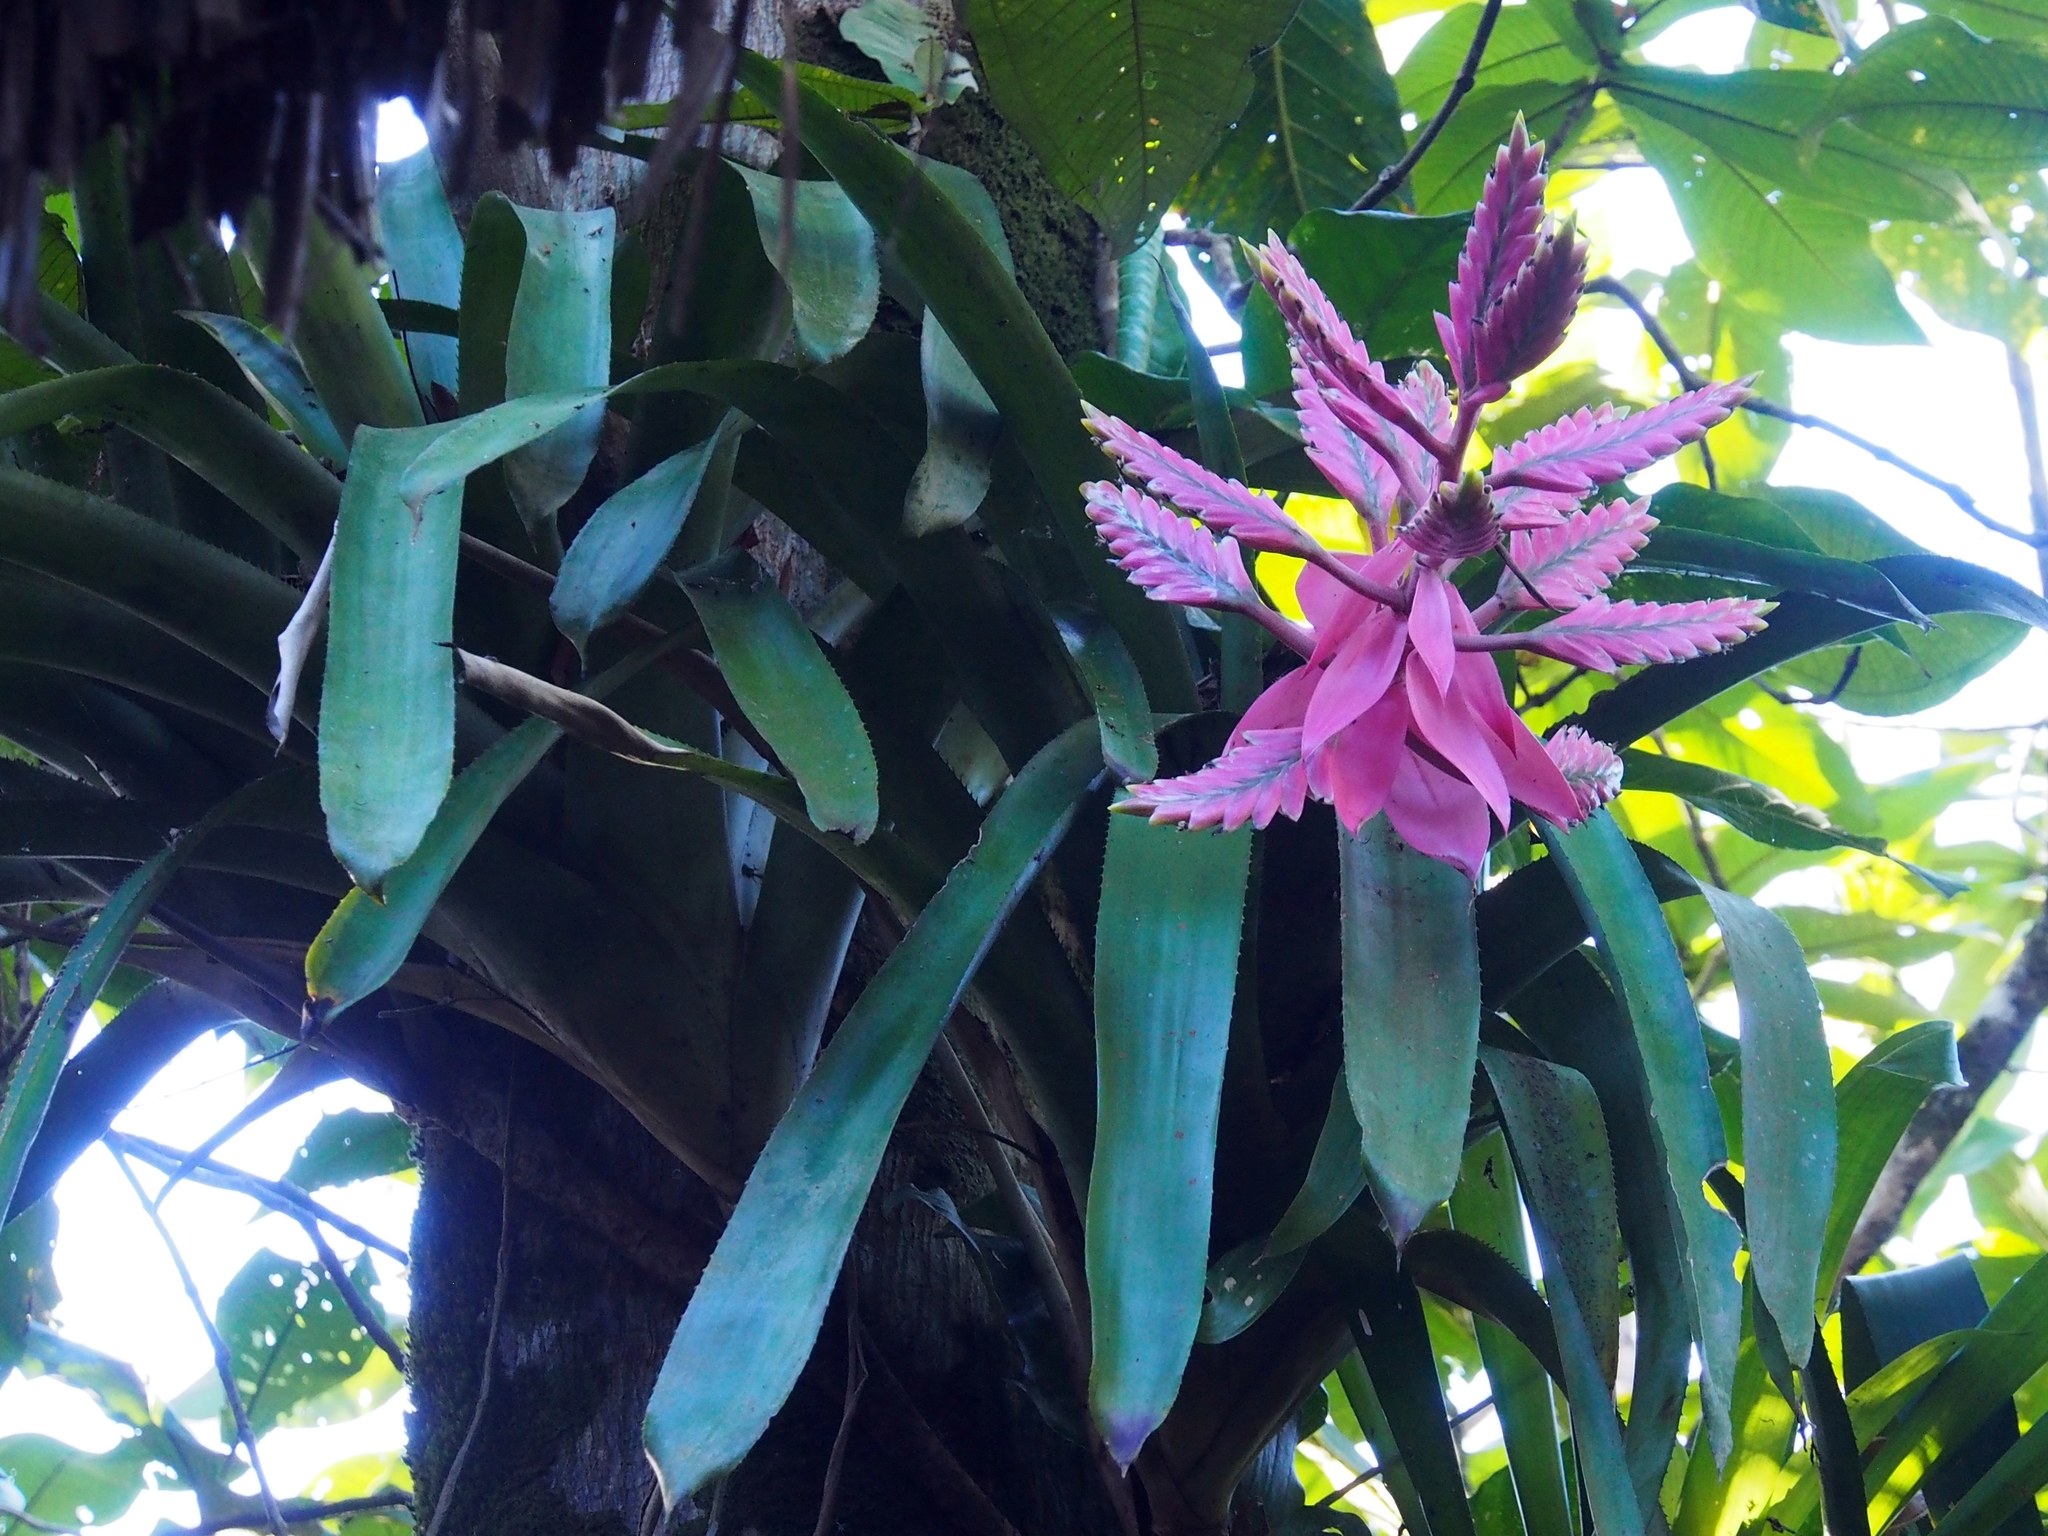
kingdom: Plantae
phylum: Tracheophyta
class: Liliopsida
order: Poales
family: Bromeliaceae
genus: Aechmea
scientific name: Aechmea tillandsioides
